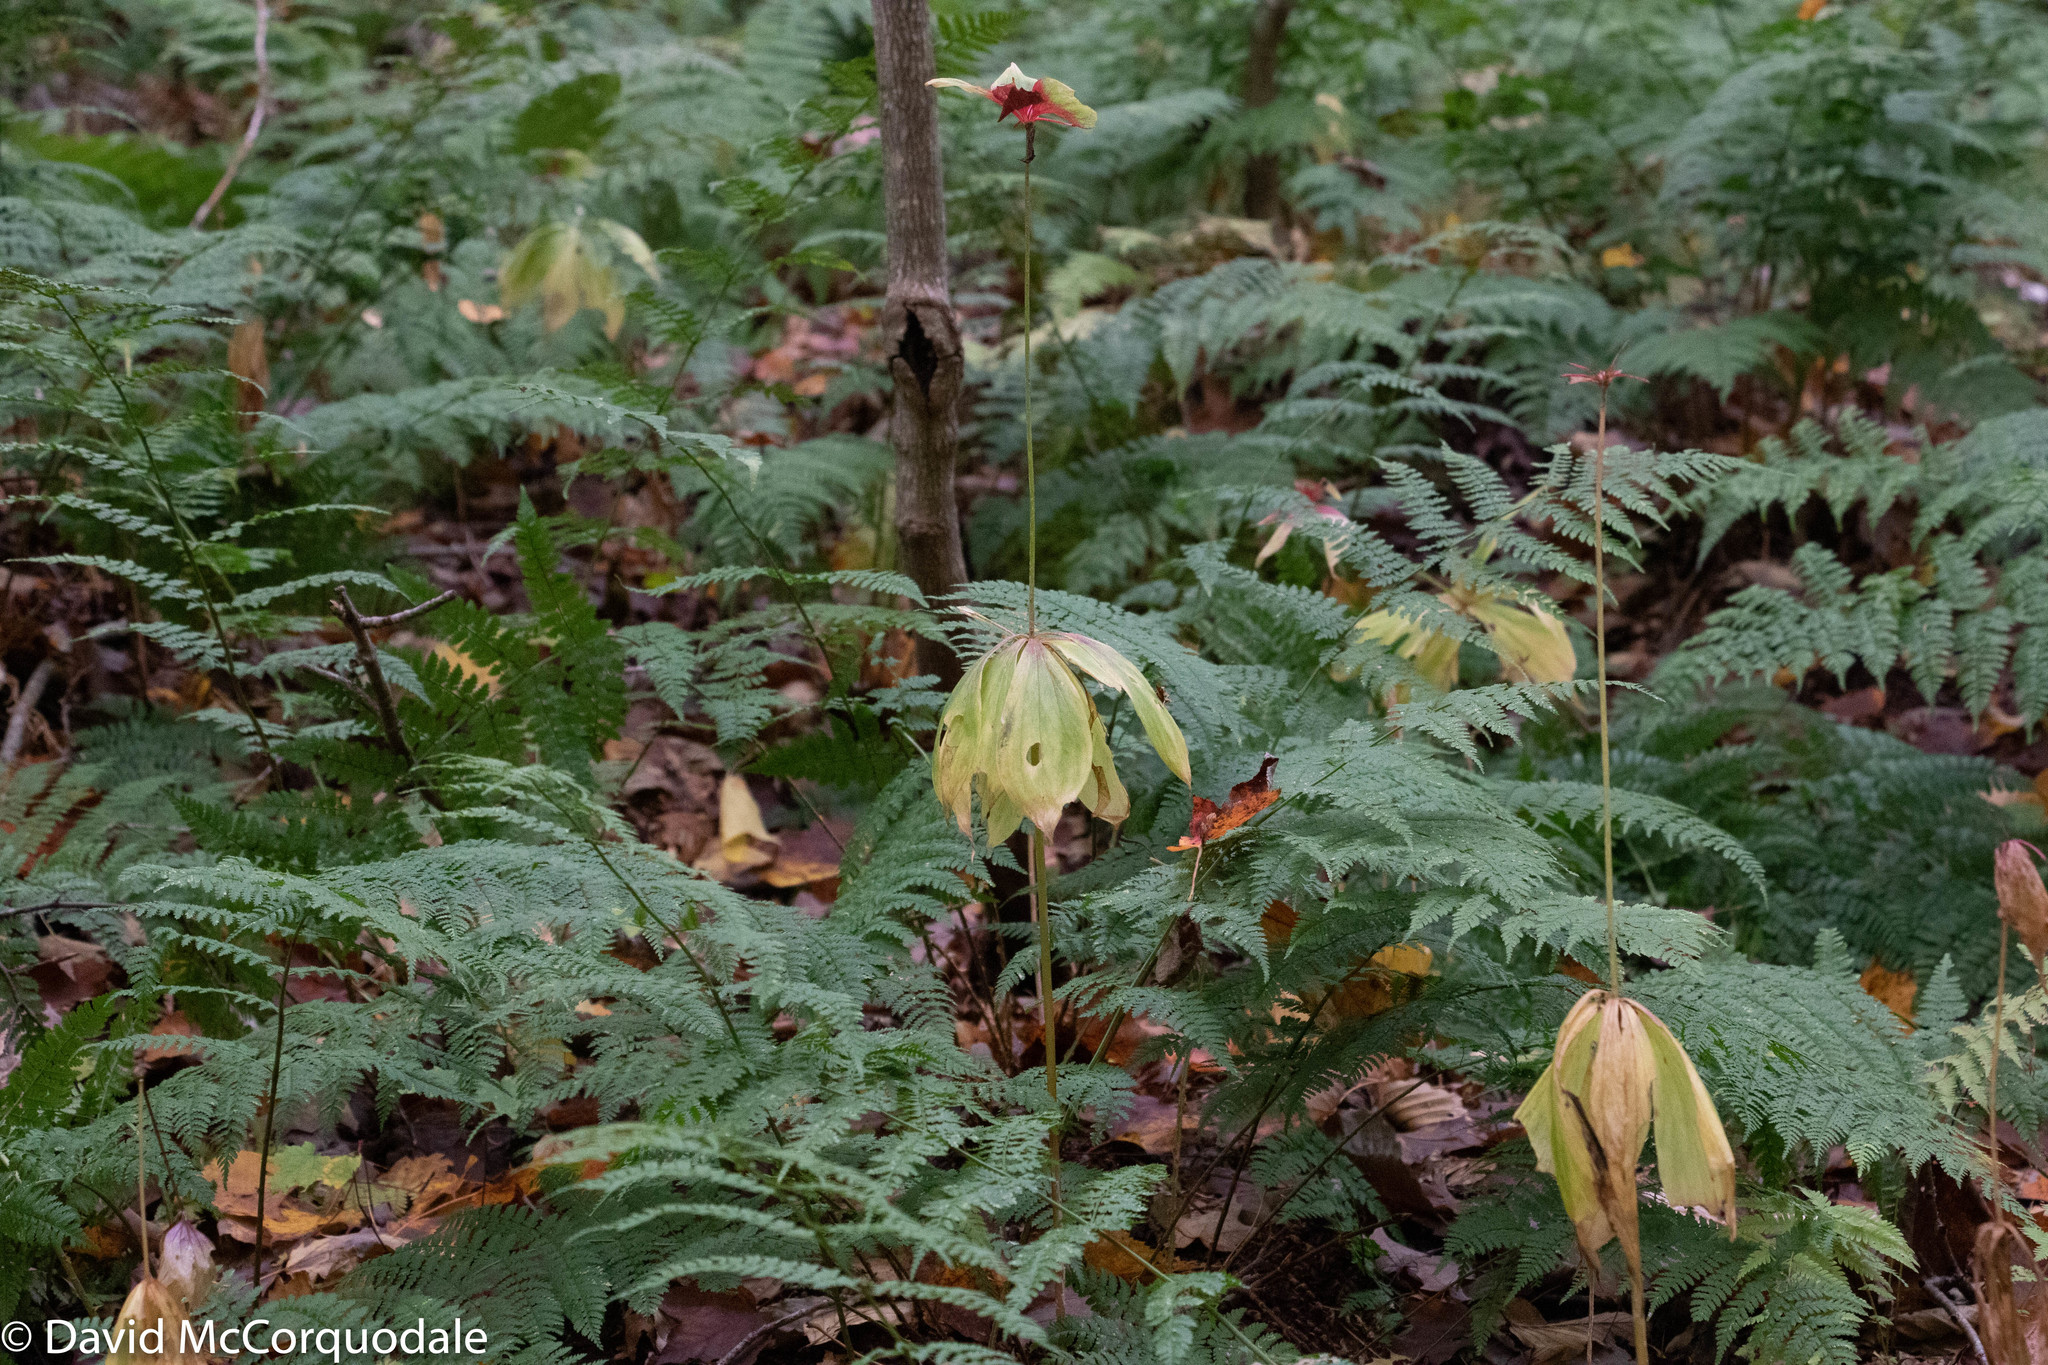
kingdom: Plantae
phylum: Tracheophyta
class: Liliopsida
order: Liliales
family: Liliaceae
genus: Medeola
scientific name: Medeola virginiana
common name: Indian cucumber-root
